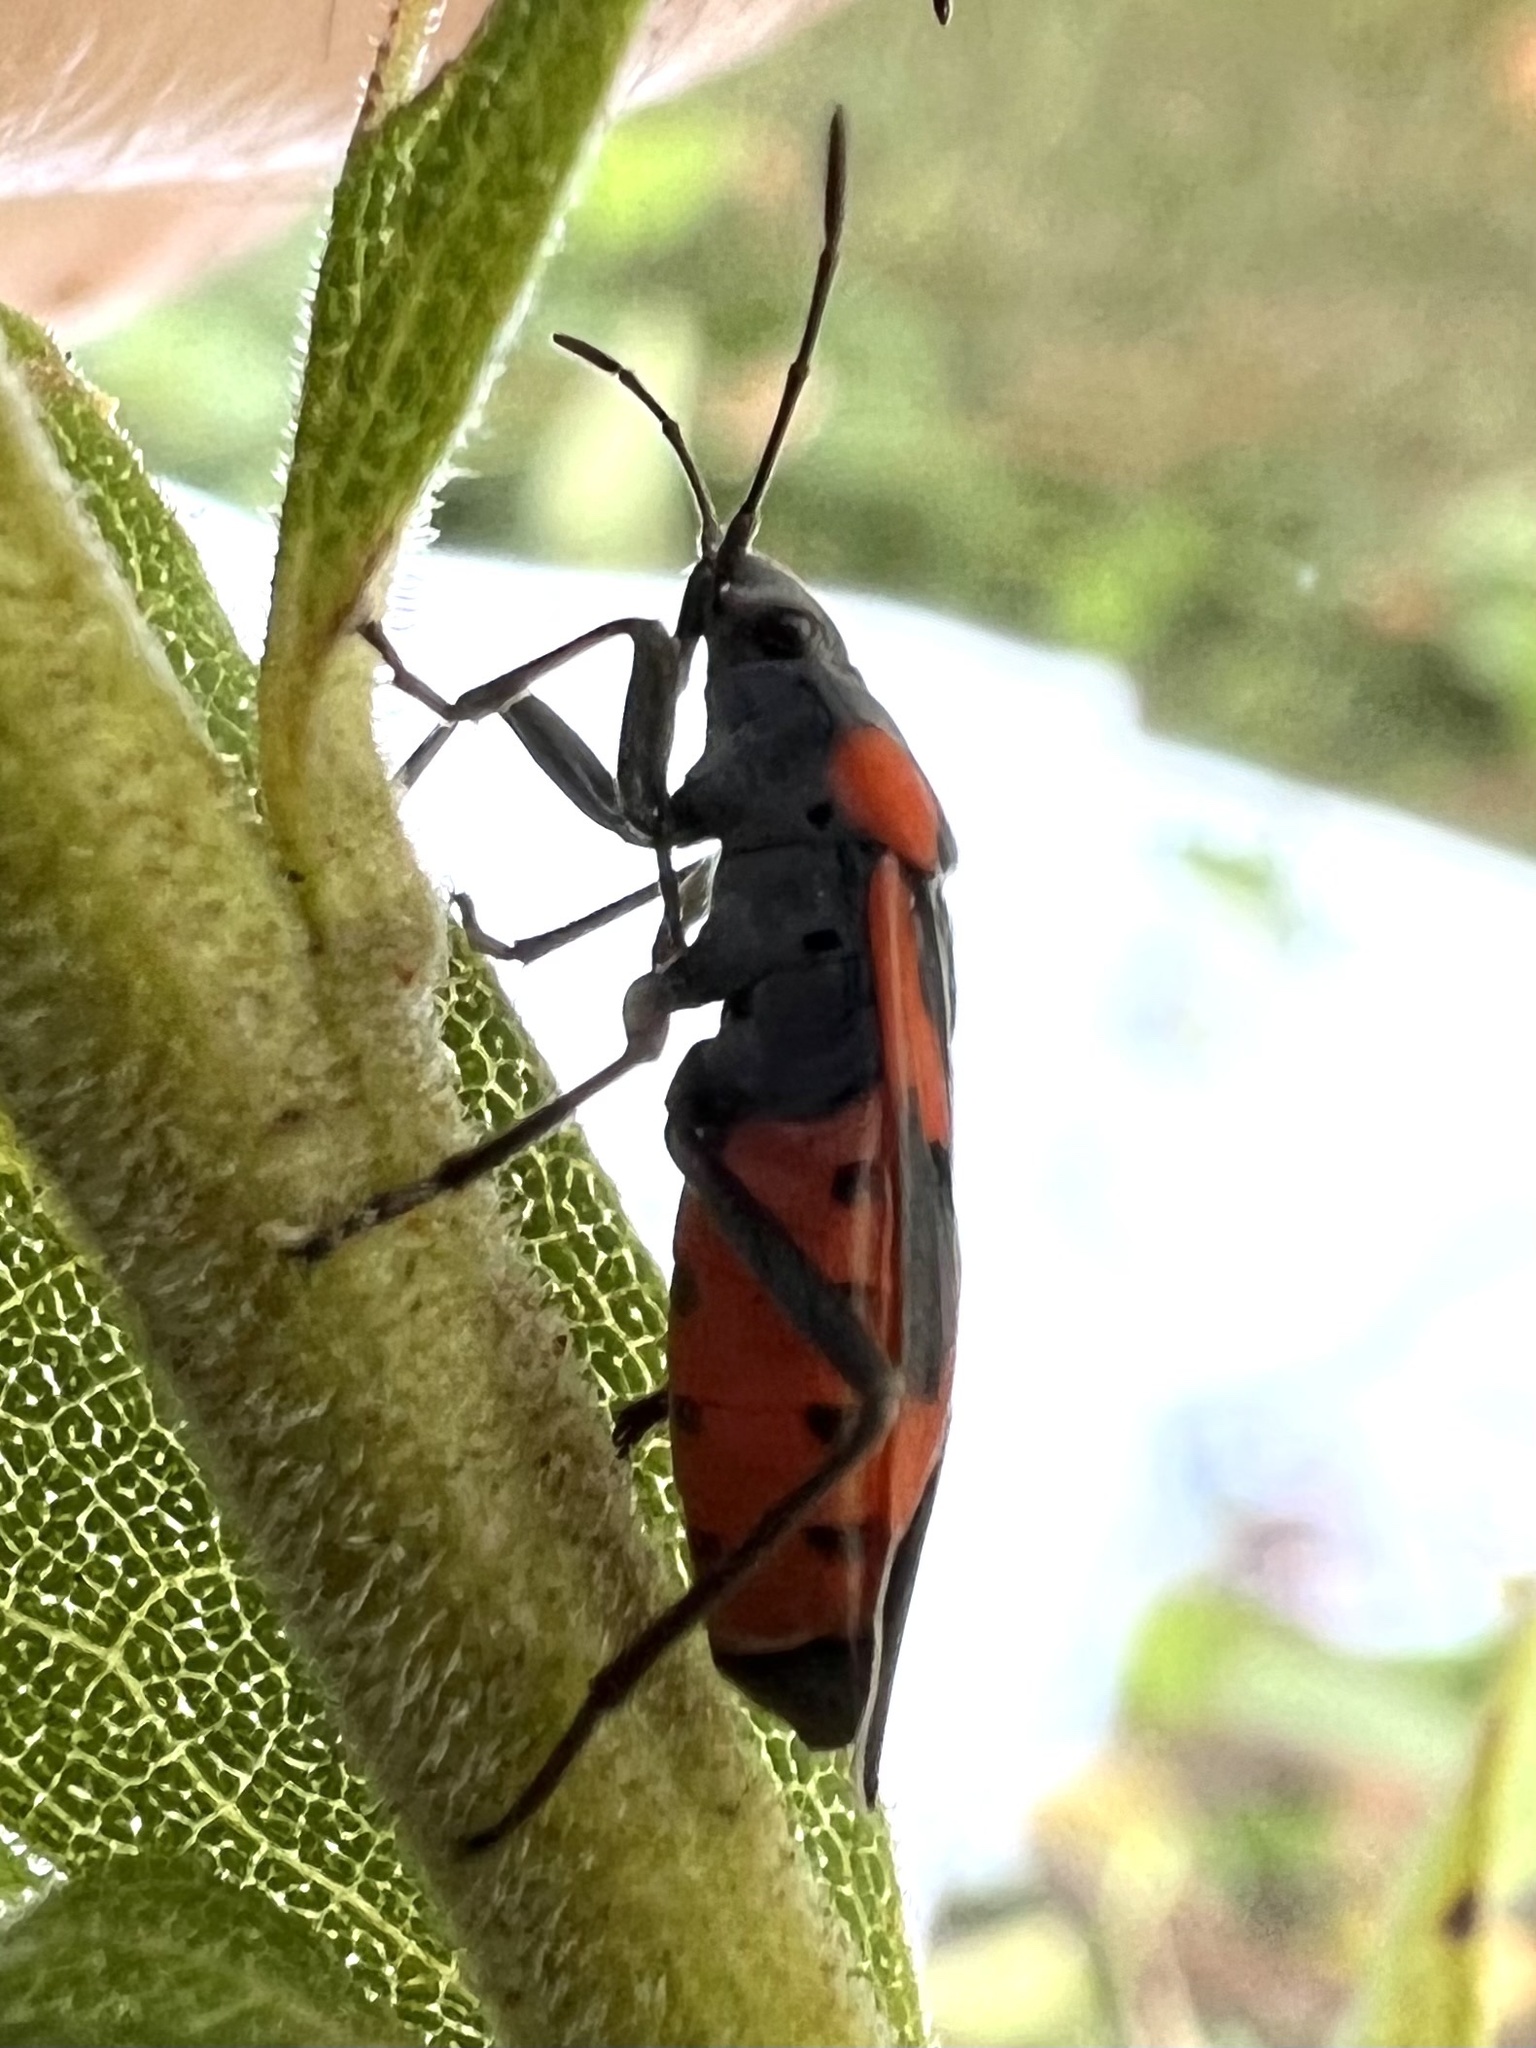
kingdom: Animalia
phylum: Arthropoda
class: Insecta
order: Hemiptera
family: Lygaeidae
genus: Lygaeus
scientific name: Lygaeus kalmii
